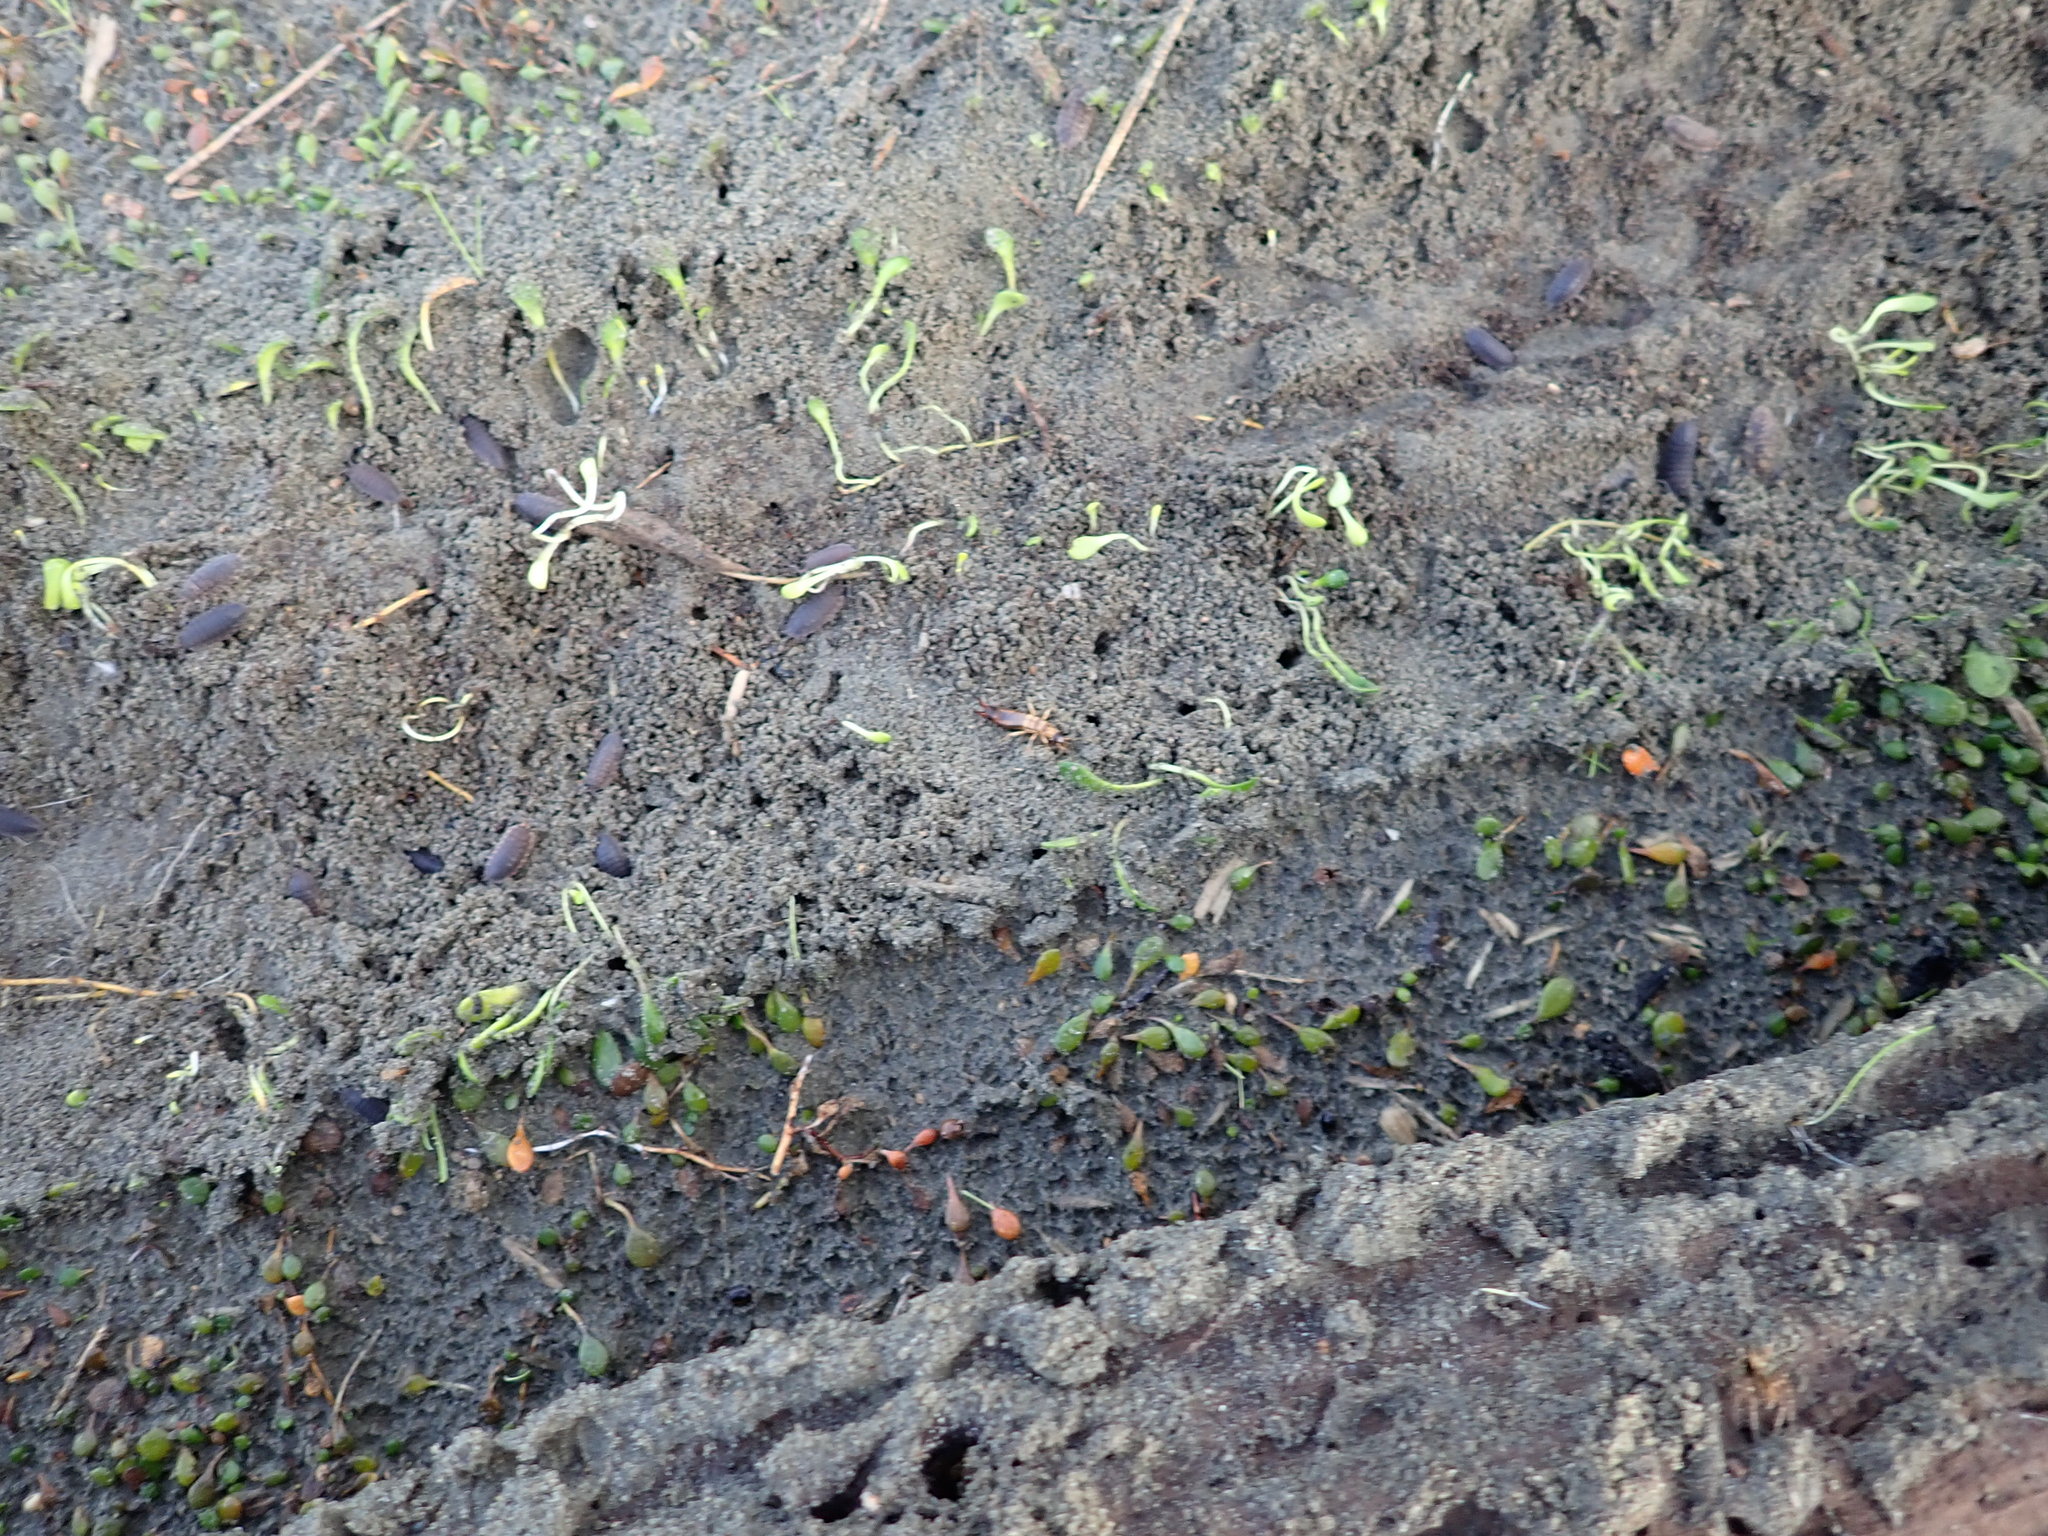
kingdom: Animalia
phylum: Arthropoda
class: Insecta
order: Dermaptera
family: Anisolabididae
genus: Anisolabis
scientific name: Anisolabis littorea
